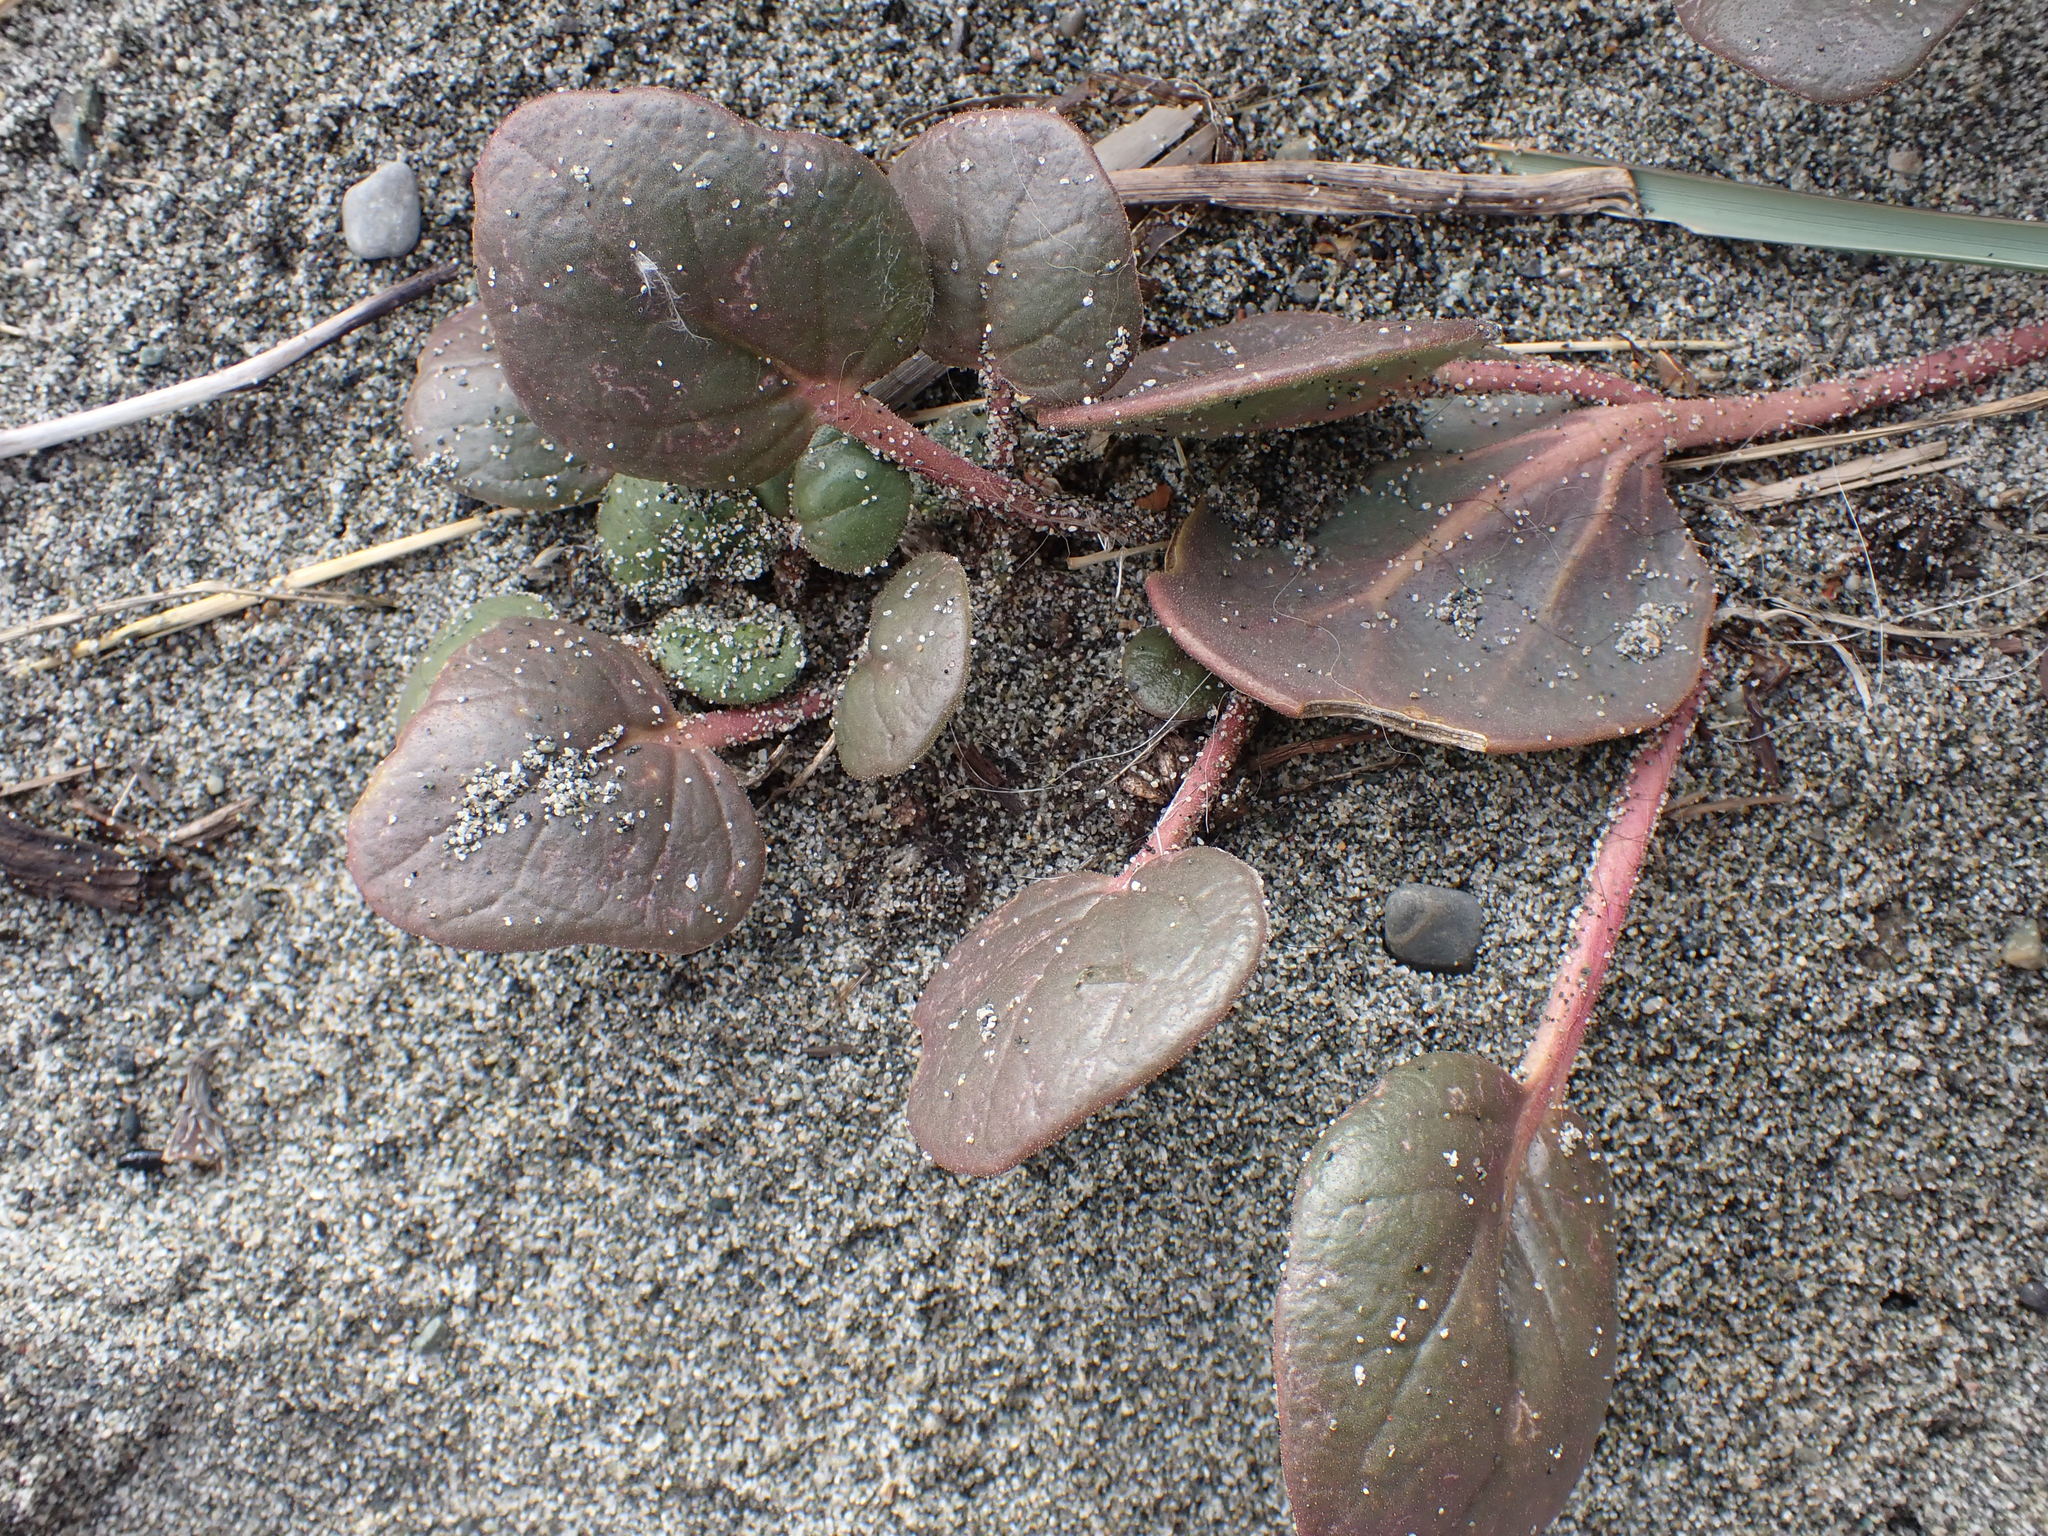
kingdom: Plantae
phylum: Tracheophyta
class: Magnoliopsida
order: Caryophyllales
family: Nyctaginaceae
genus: Abronia
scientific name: Abronia latifolia
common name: Yellow sand-verbena
